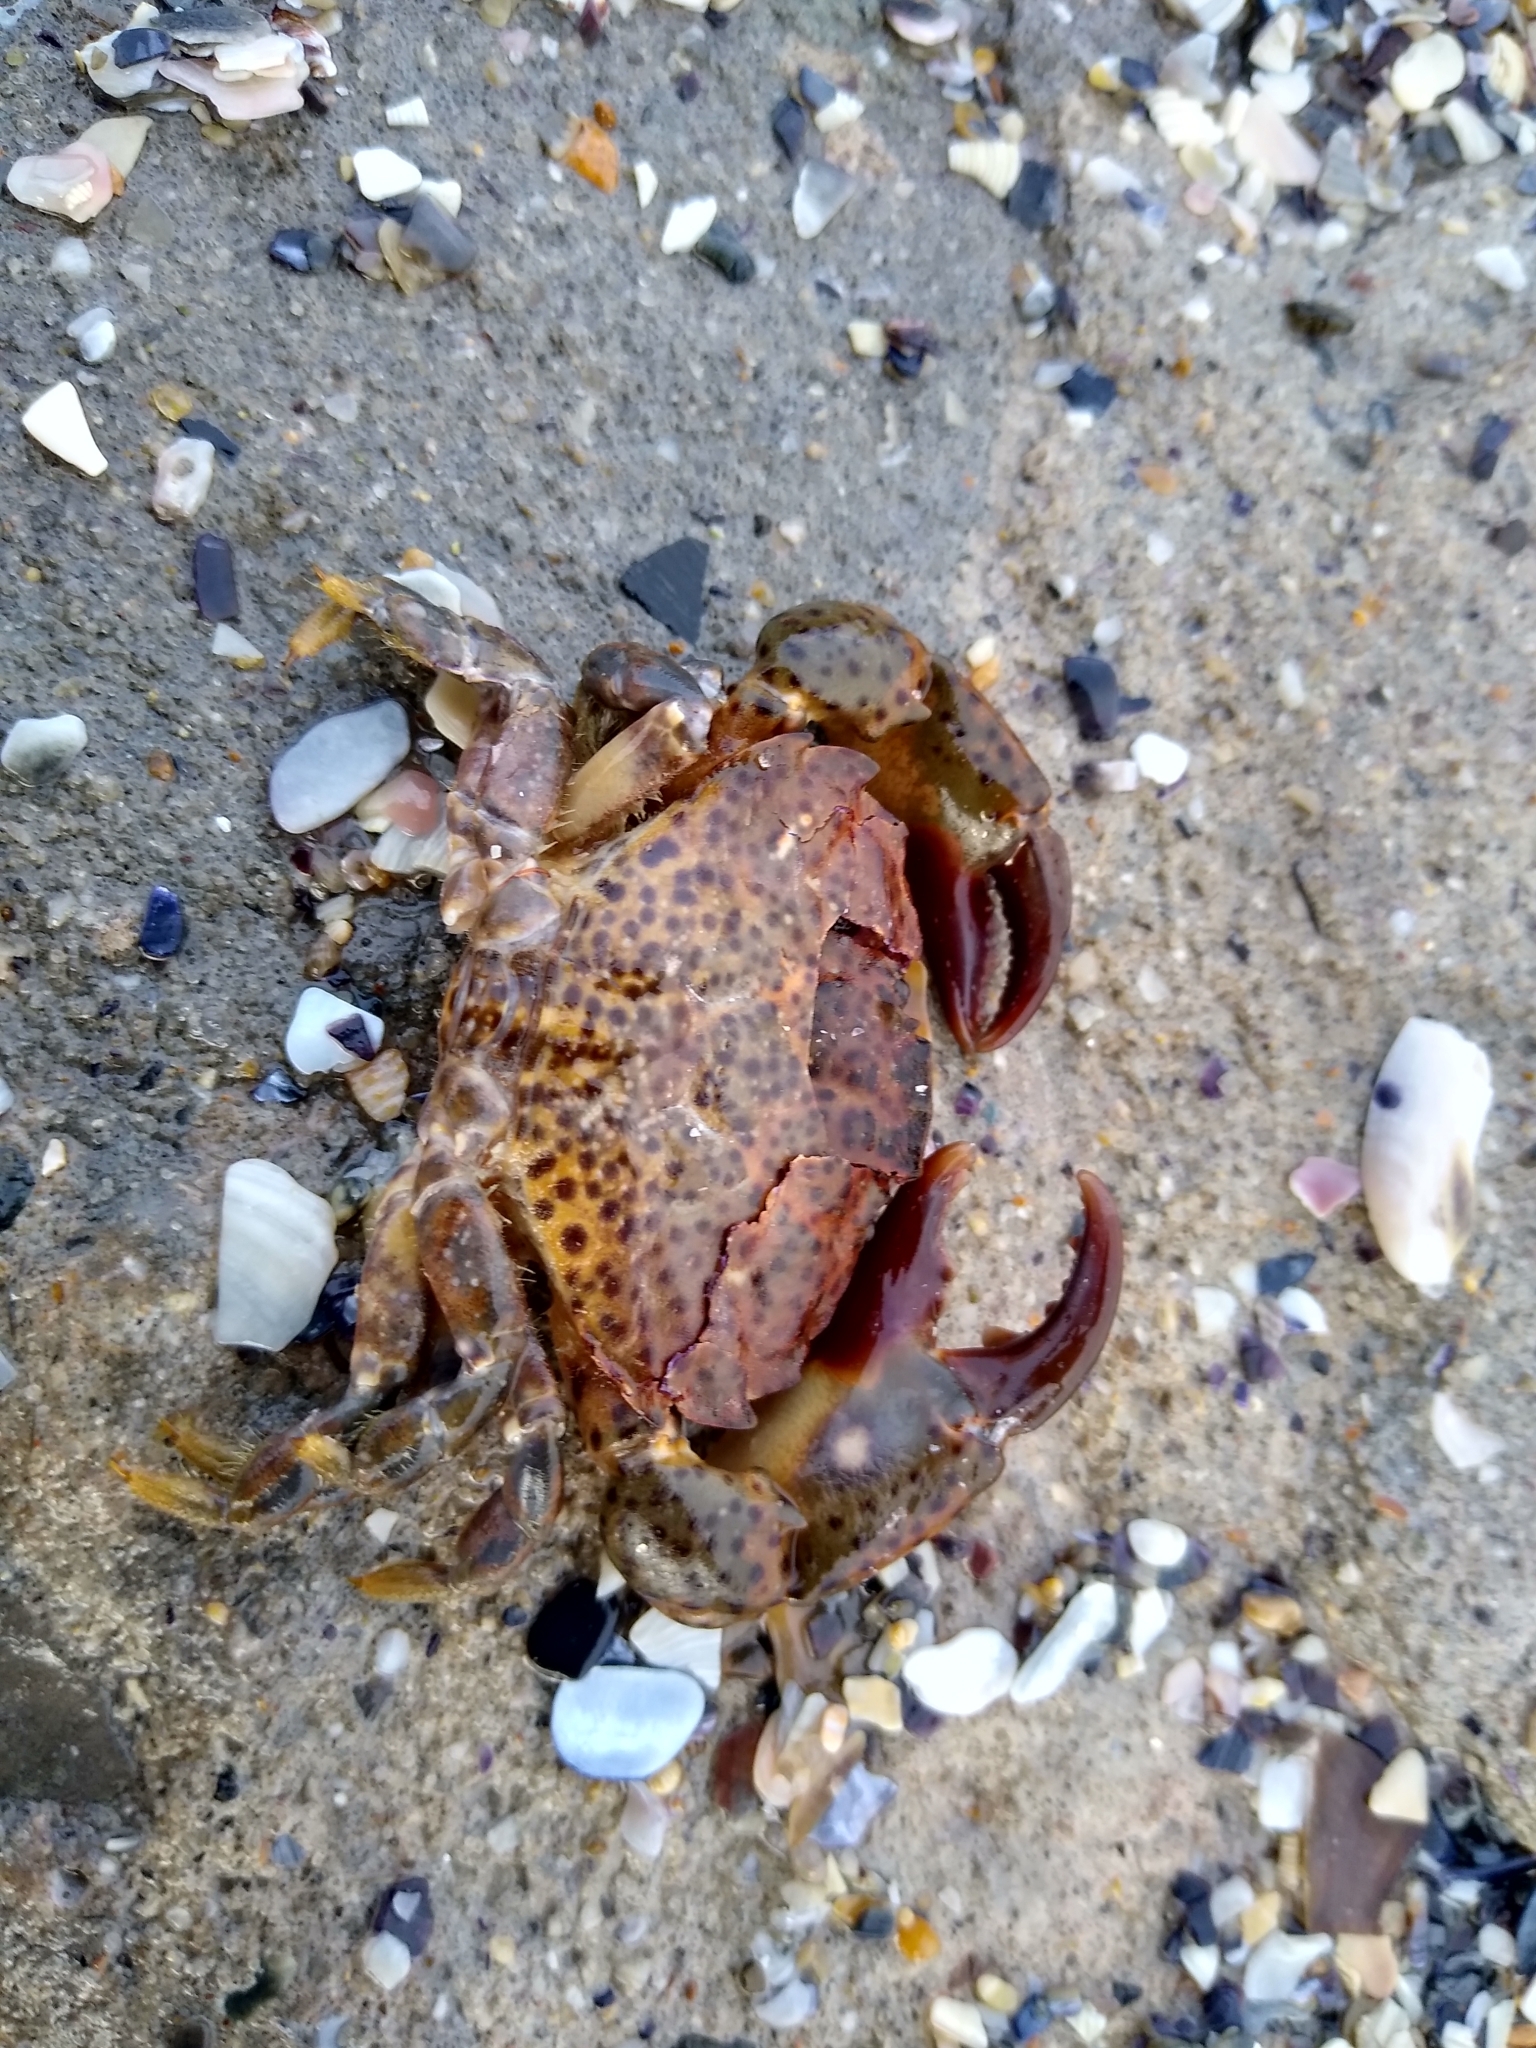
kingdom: Animalia
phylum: Arthropoda
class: Malacostraca
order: Decapoda
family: Xanthidae
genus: Xantho
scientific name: Xantho poressa
